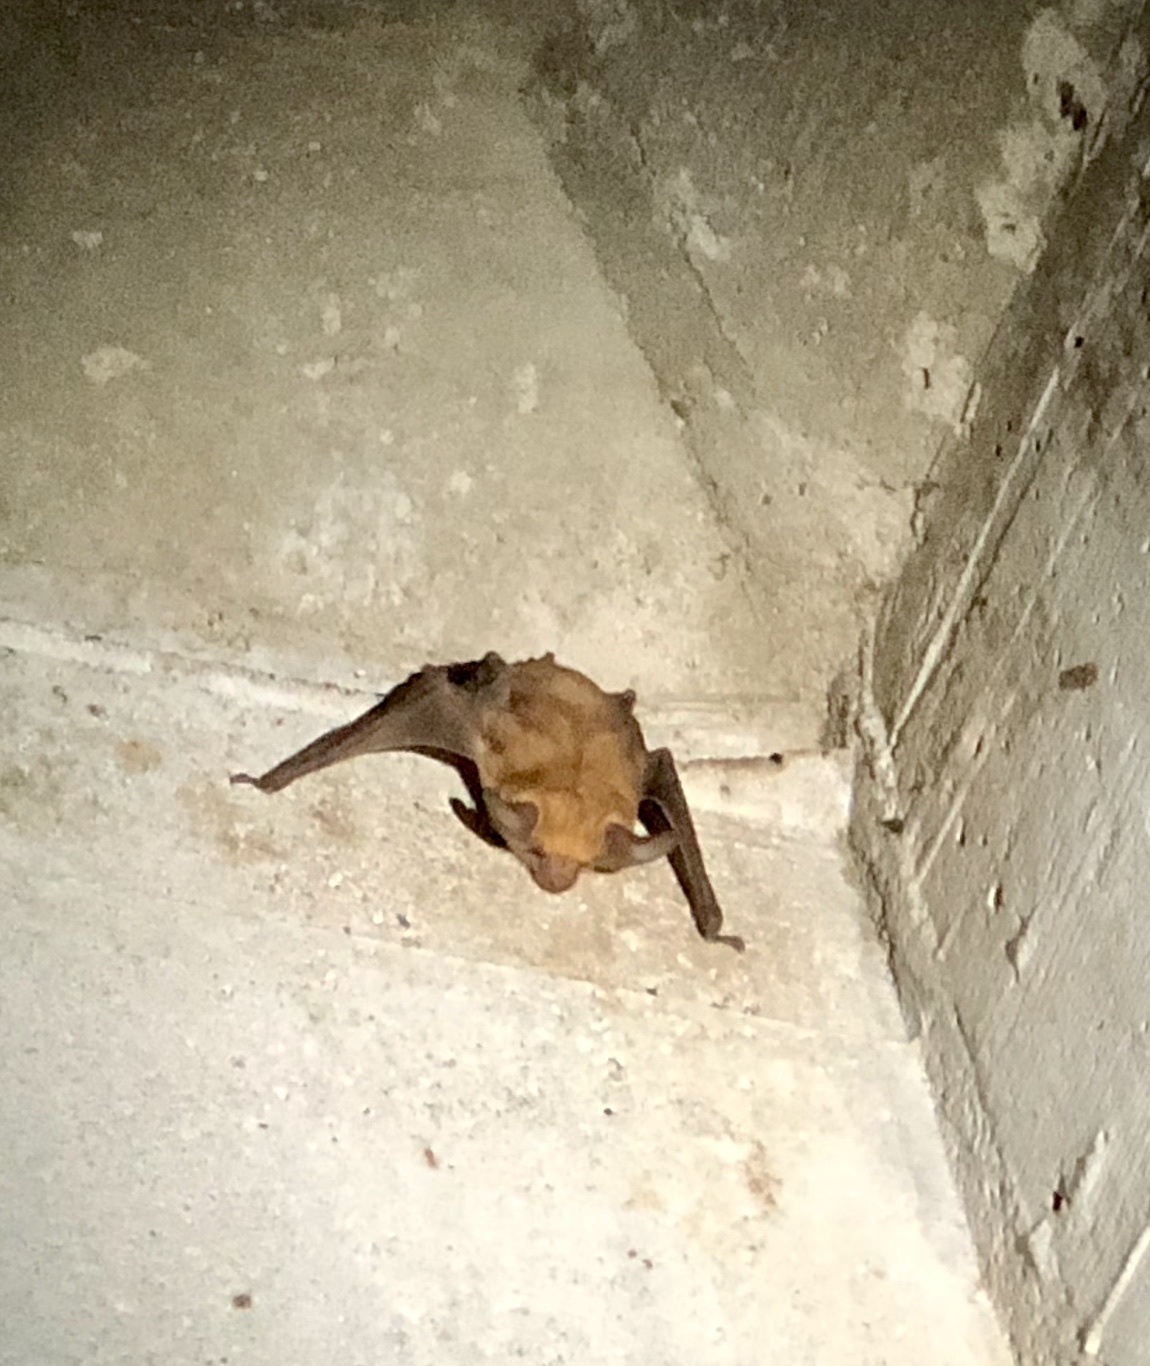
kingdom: Animalia
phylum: Chordata
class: Mammalia
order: Chiroptera
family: Vespertilionidae
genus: Antrozous
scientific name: Antrozous pallidus
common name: Pallid bat
